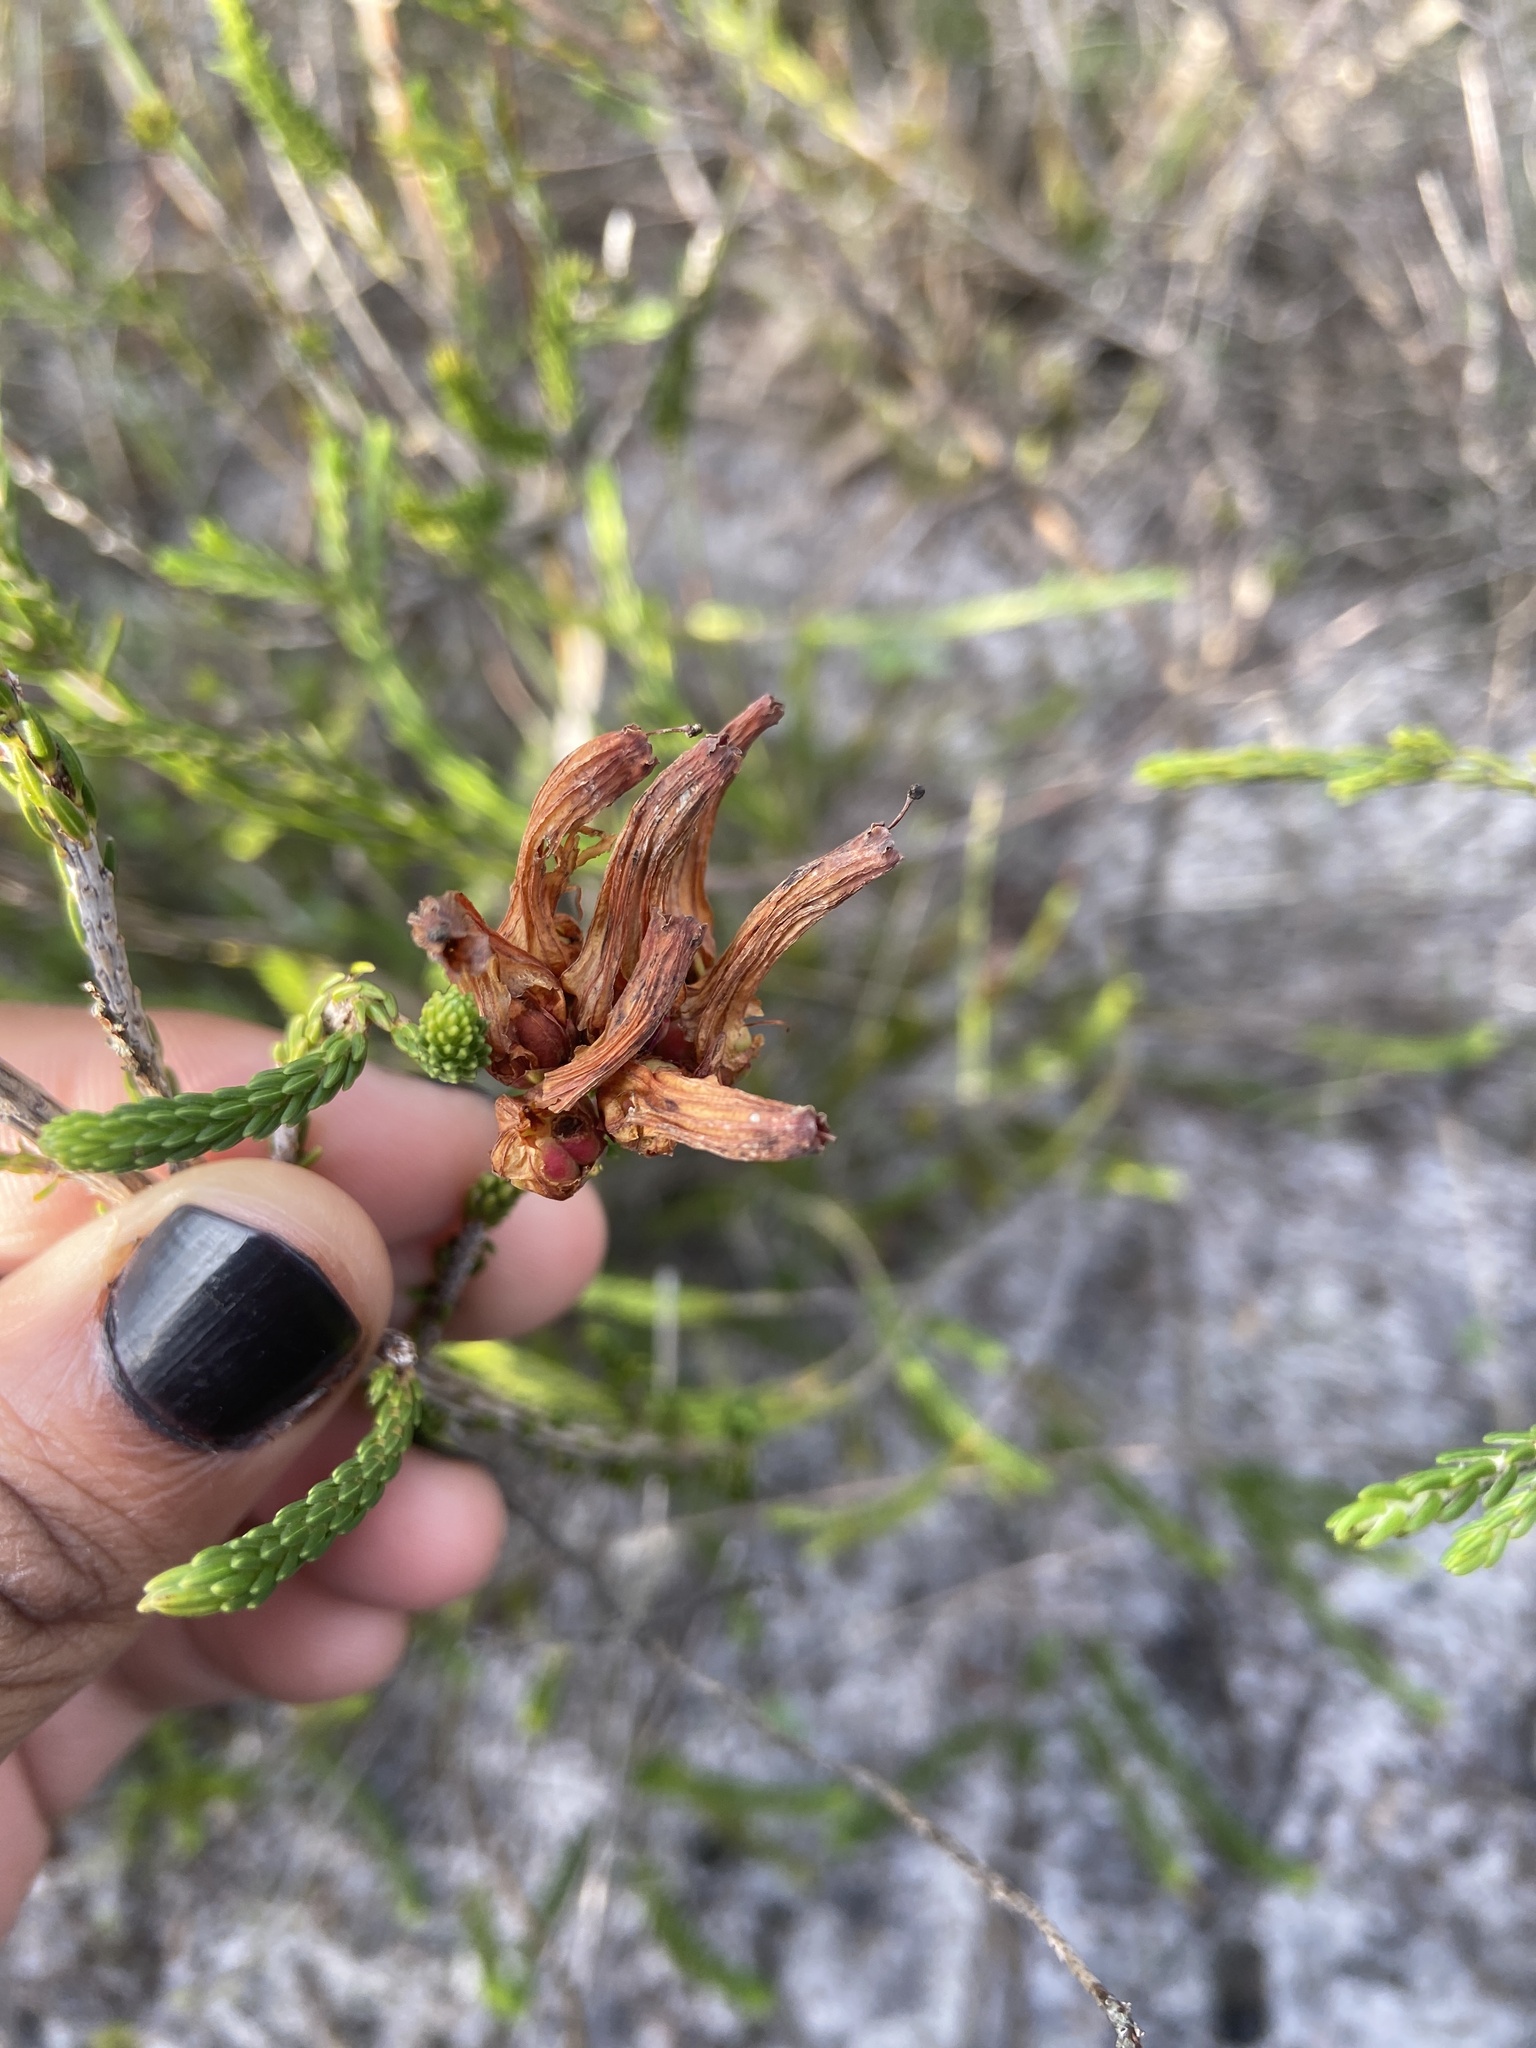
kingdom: Plantae
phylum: Tracheophyta
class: Magnoliopsida
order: Ericales
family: Ericaceae
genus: Erica
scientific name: Erica mammosa
